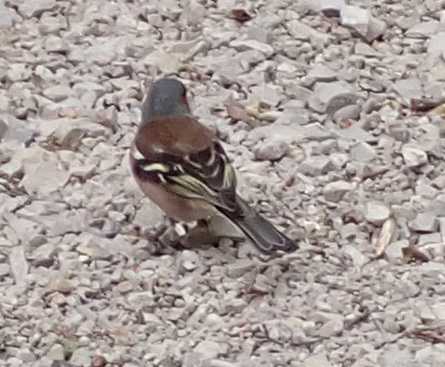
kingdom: Animalia
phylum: Chordata
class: Aves
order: Passeriformes
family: Fringillidae
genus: Fringilla
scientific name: Fringilla coelebs
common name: Common chaffinch
